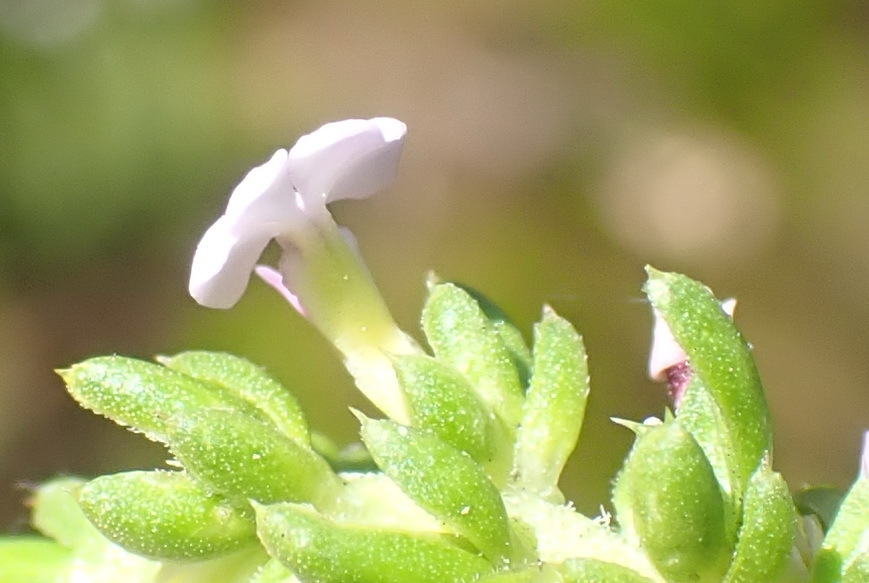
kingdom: Plantae
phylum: Tracheophyta
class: Magnoliopsida
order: Fabales
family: Polygalaceae
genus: Muraltia
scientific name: Muraltia satureioides
